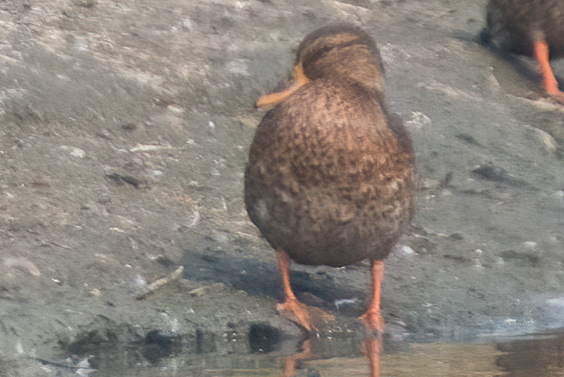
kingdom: Animalia
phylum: Chordata
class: Aves
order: Anseriformes
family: Anatidae
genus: Anas
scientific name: Anas platyrhynchos
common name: Mallard
